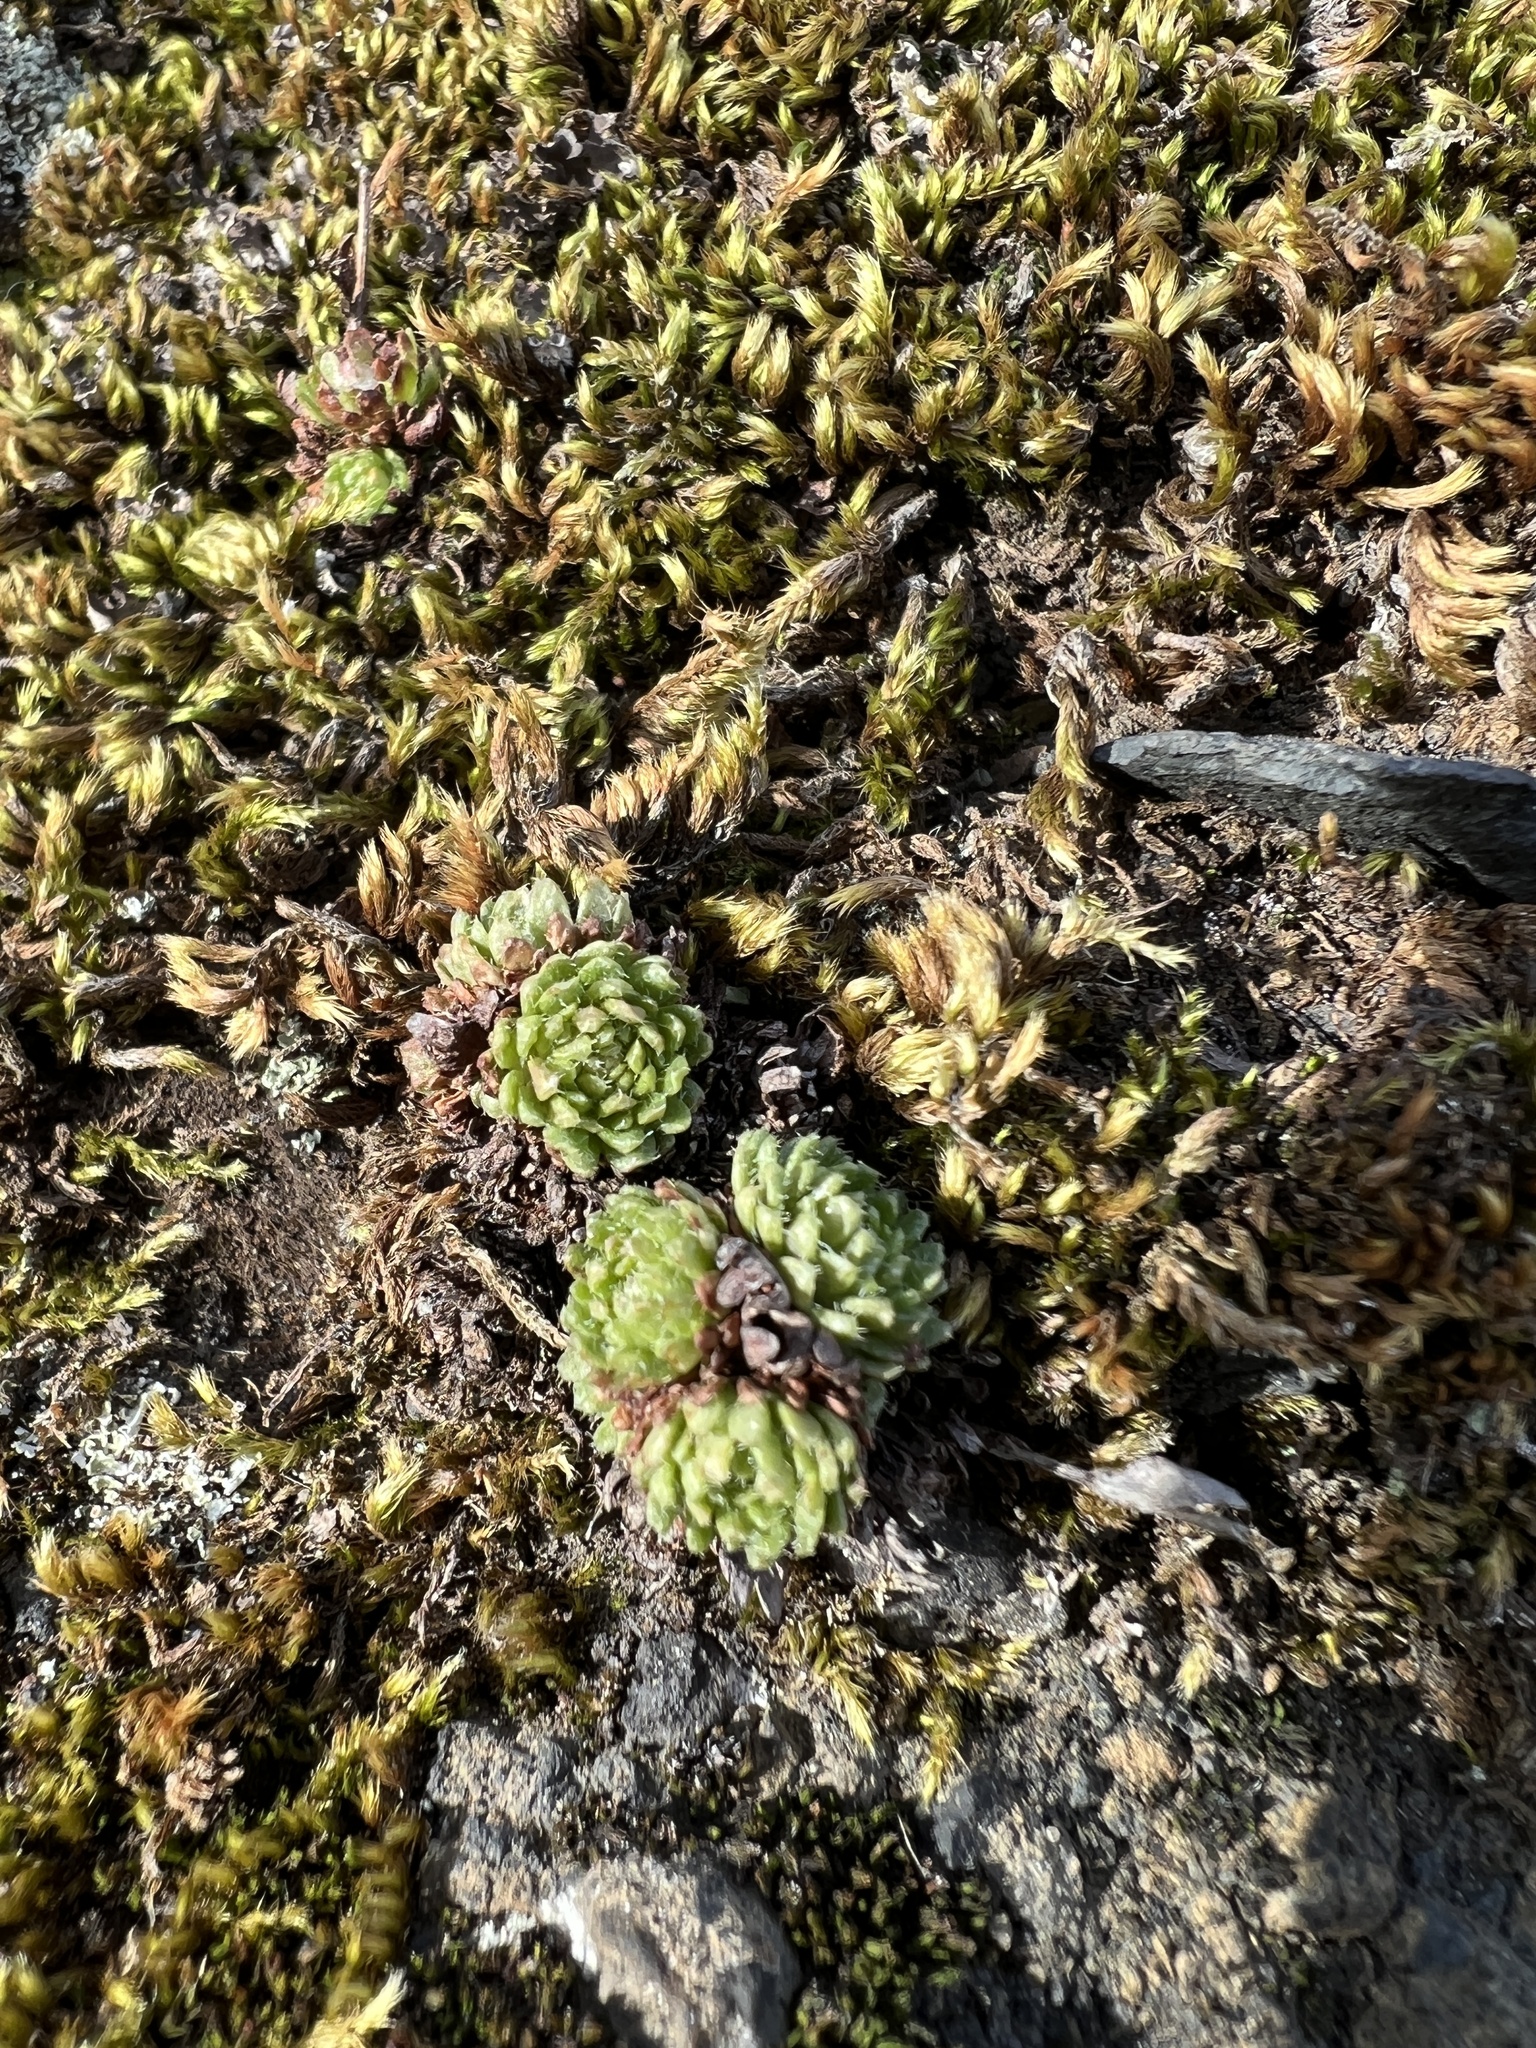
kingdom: Plantae
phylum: Tracheophyta
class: Magnoliopsida
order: Saxifragales
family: Saxifragaceae
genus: Saxifraga
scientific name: Saxifraga cespitosa
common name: Tufted saxifrage
